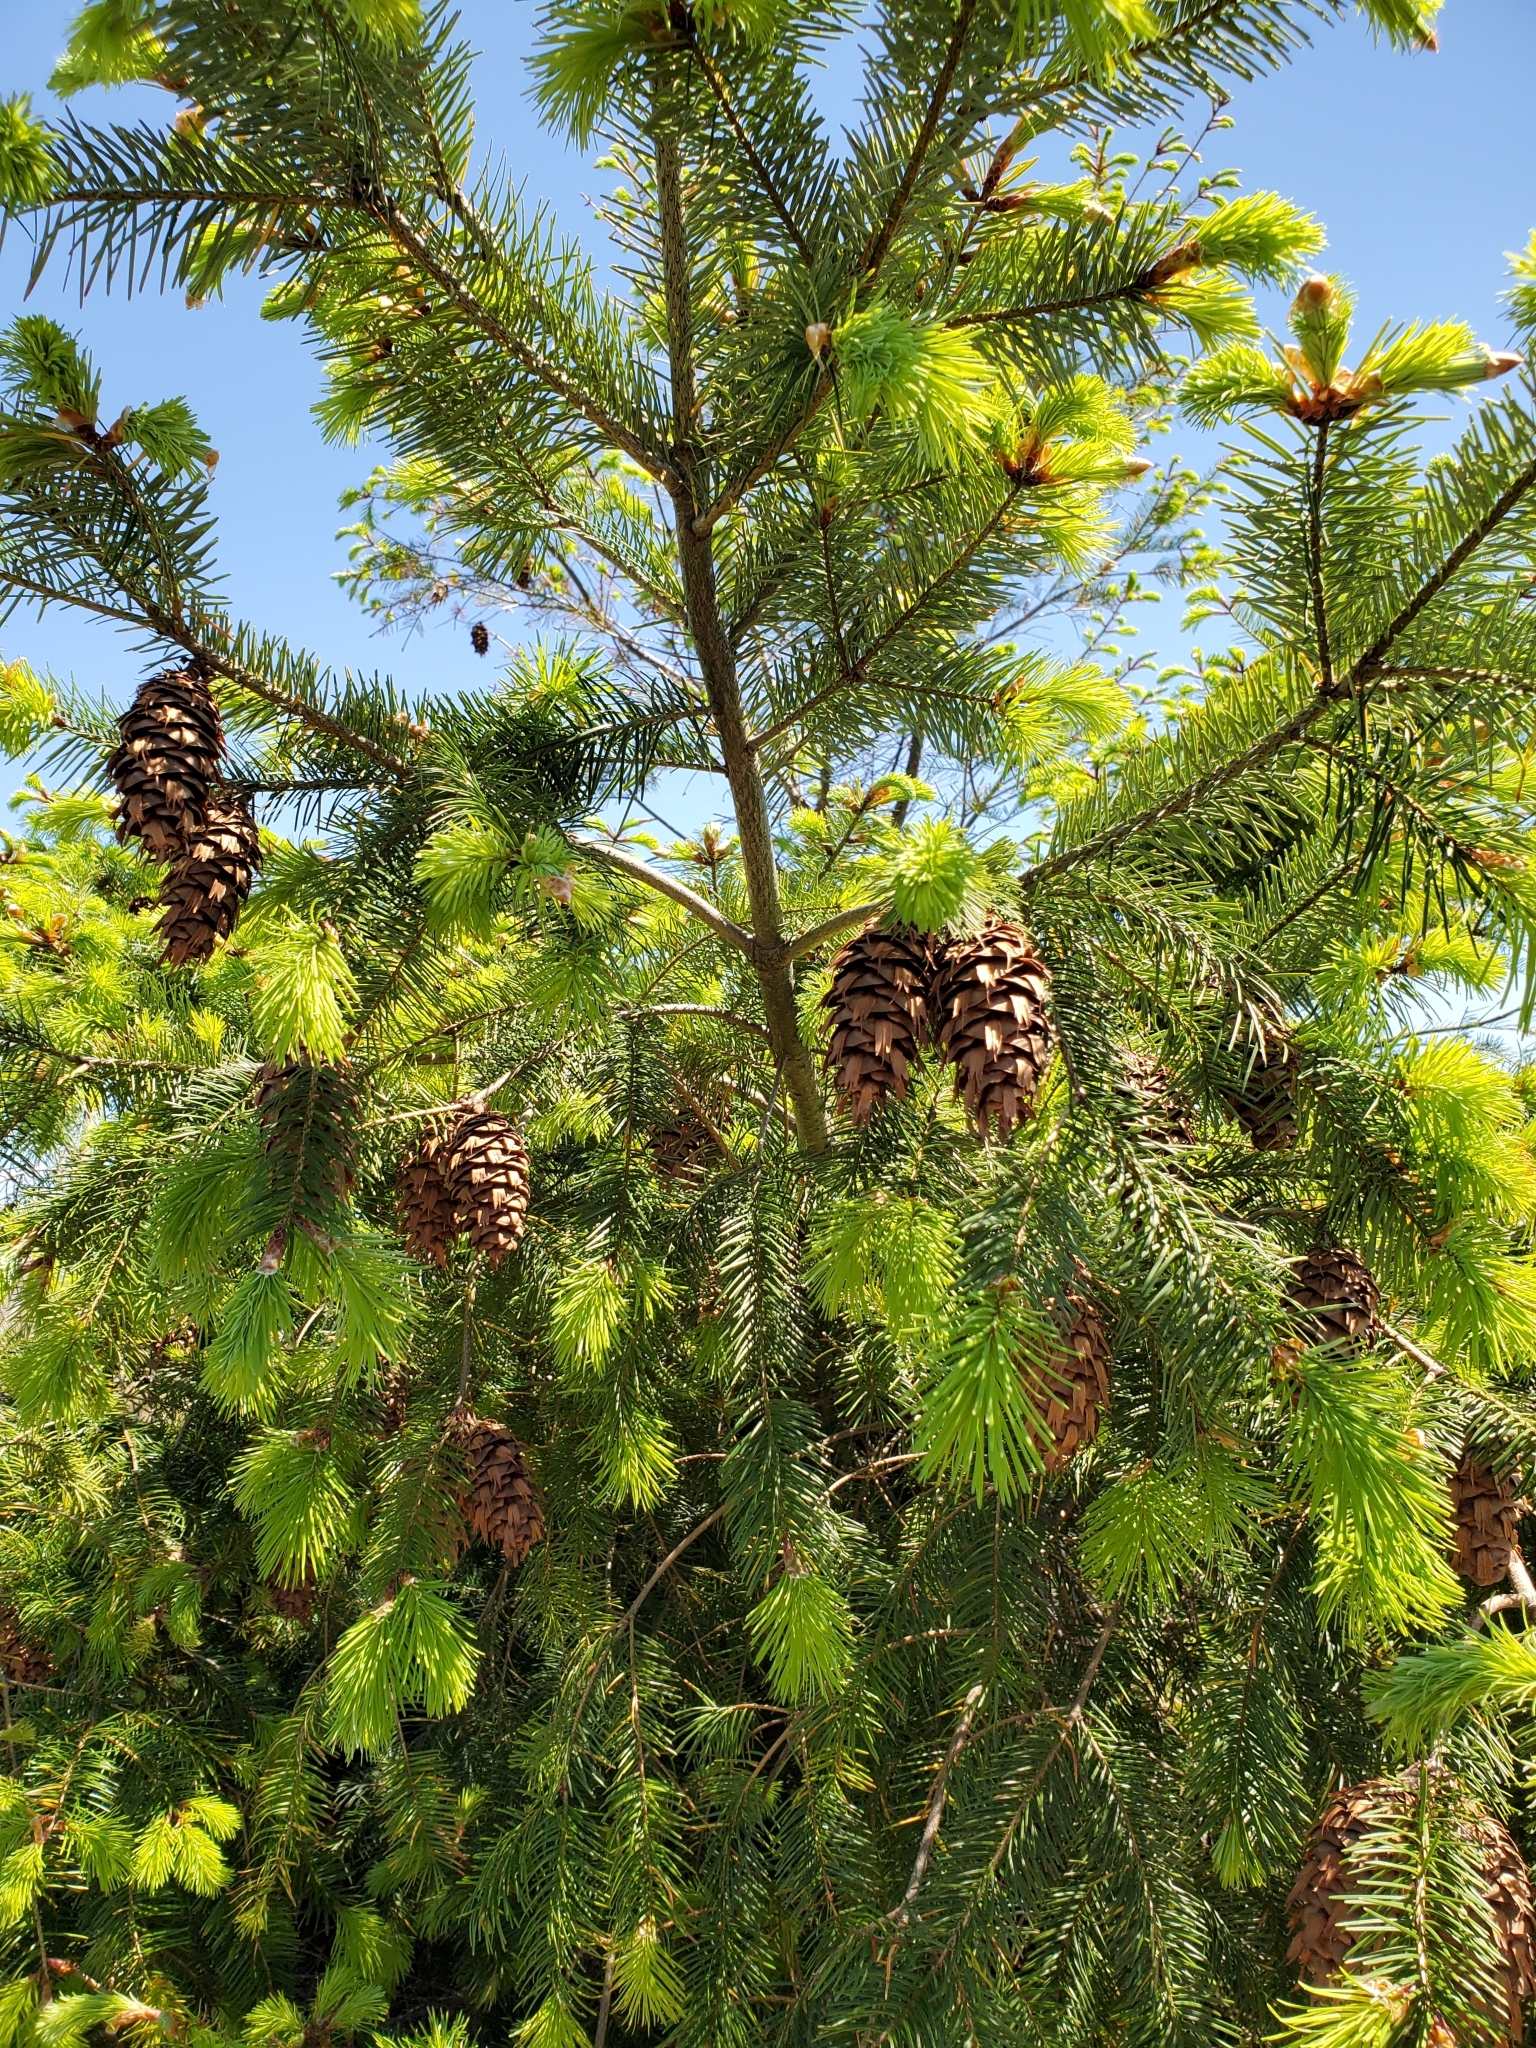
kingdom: Plantae
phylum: Tracheophyta
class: Pinopsida
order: Pinales
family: Pinaceae
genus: Pseudotsuga
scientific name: Pseudotsuga menziesii
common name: Douglas fir
